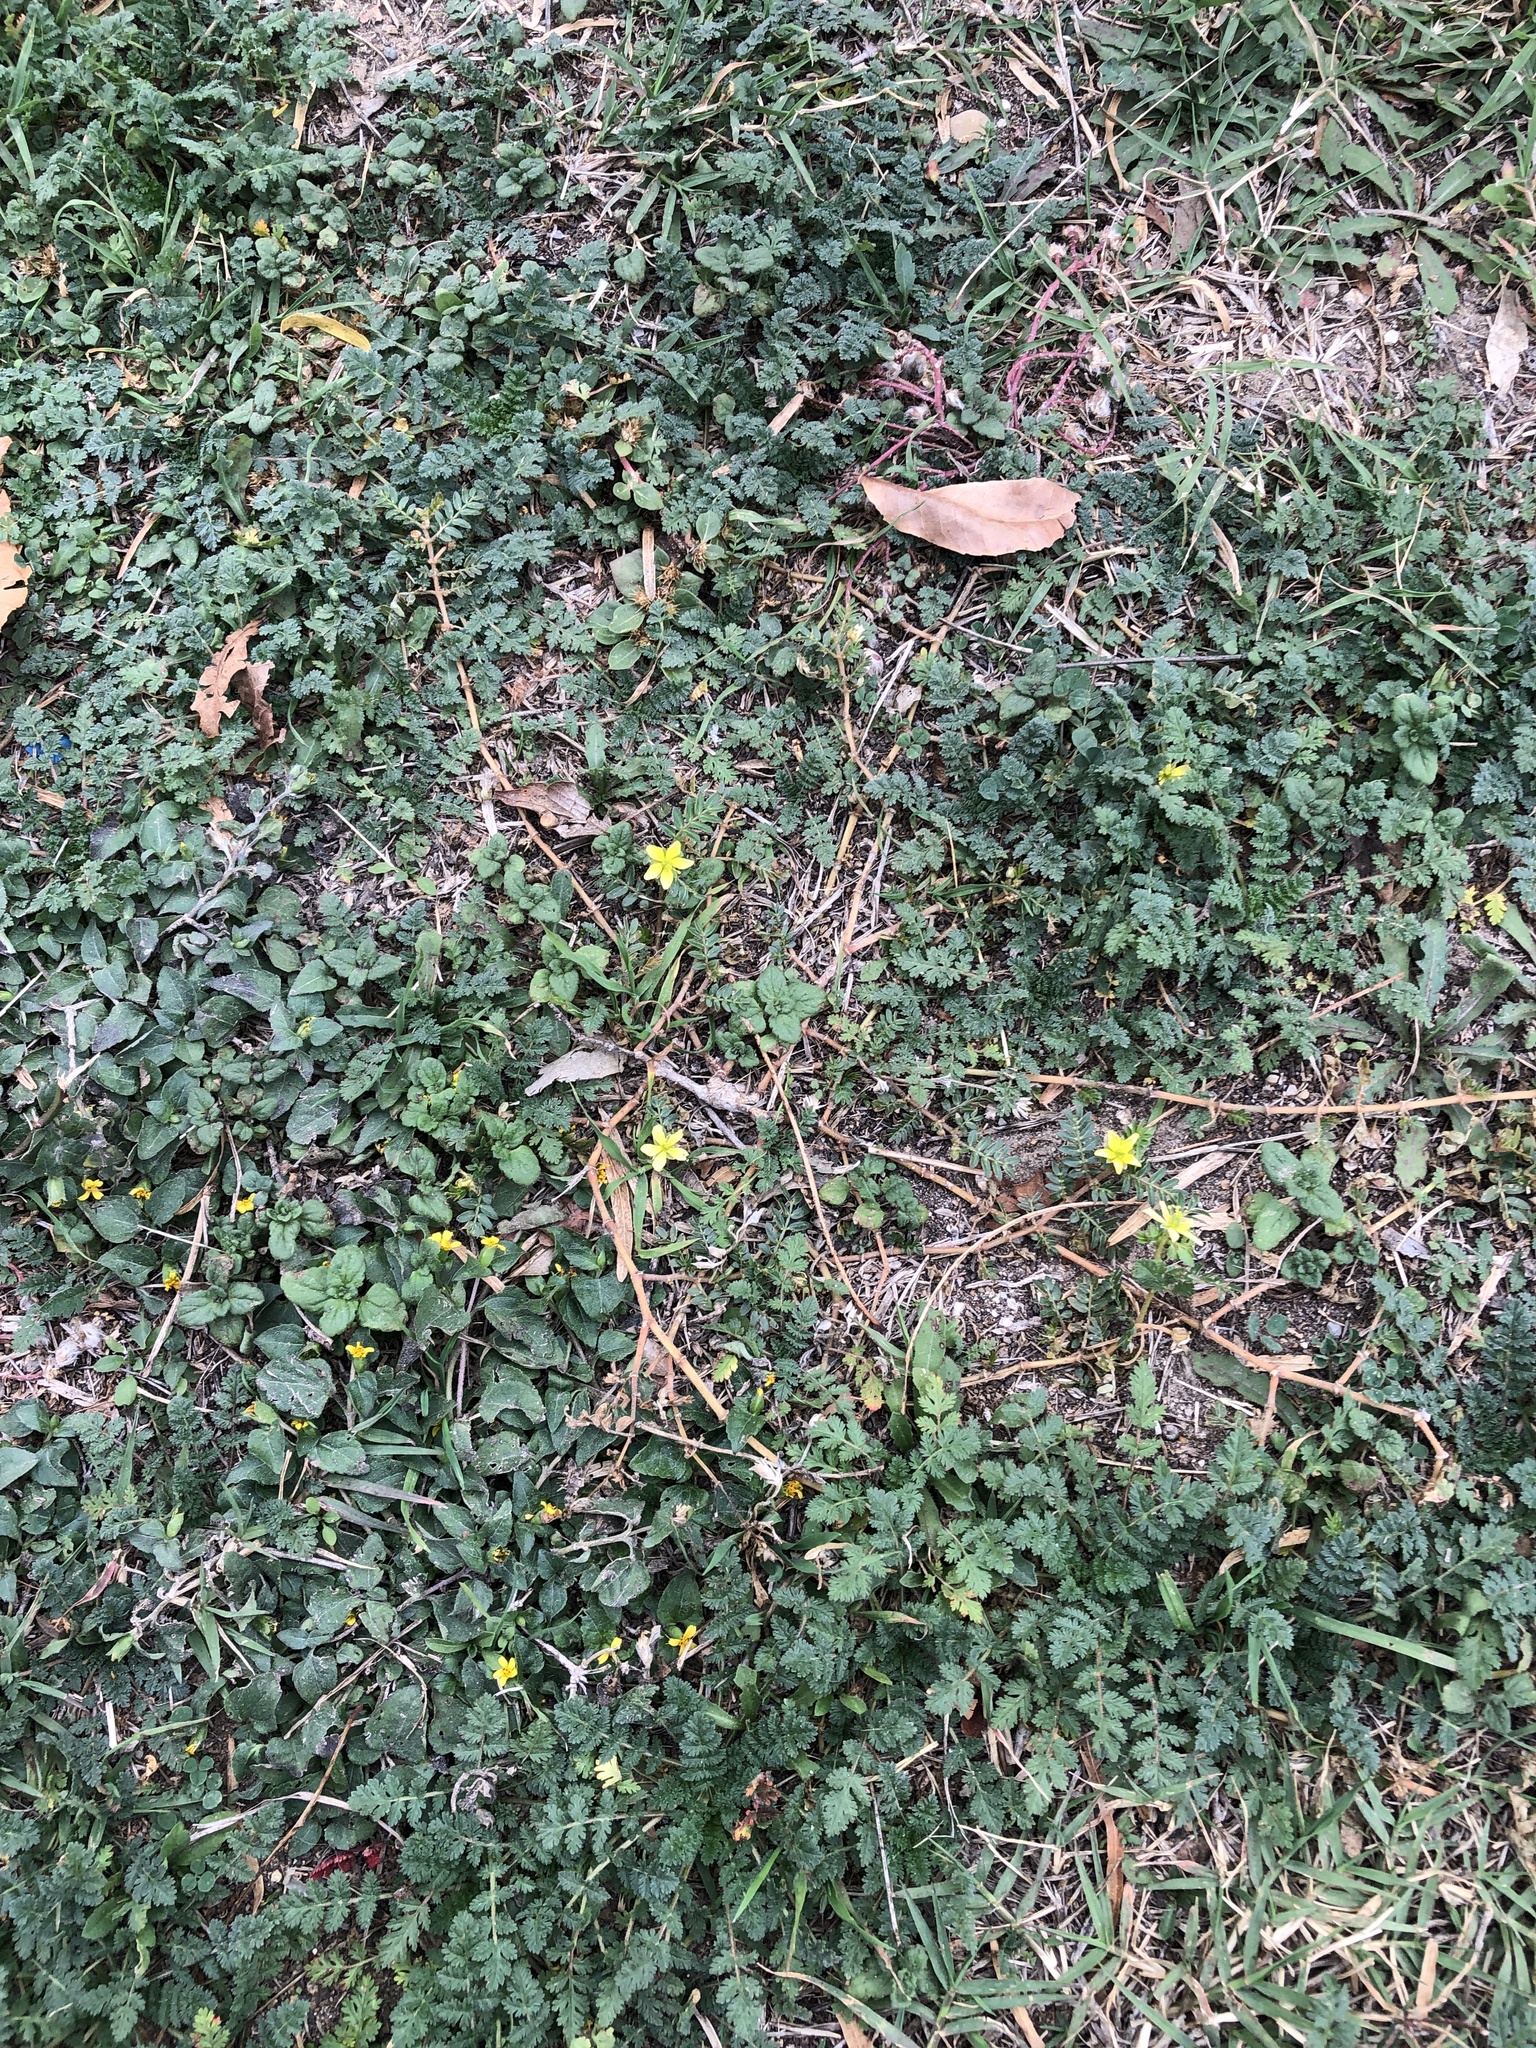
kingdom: Plantae
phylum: Tracheophyta
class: Magnoliopsida
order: Zygophyllales
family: Zygophyllaceae
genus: Tribulus
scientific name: Tribulus terrestris
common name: Puncturevine
